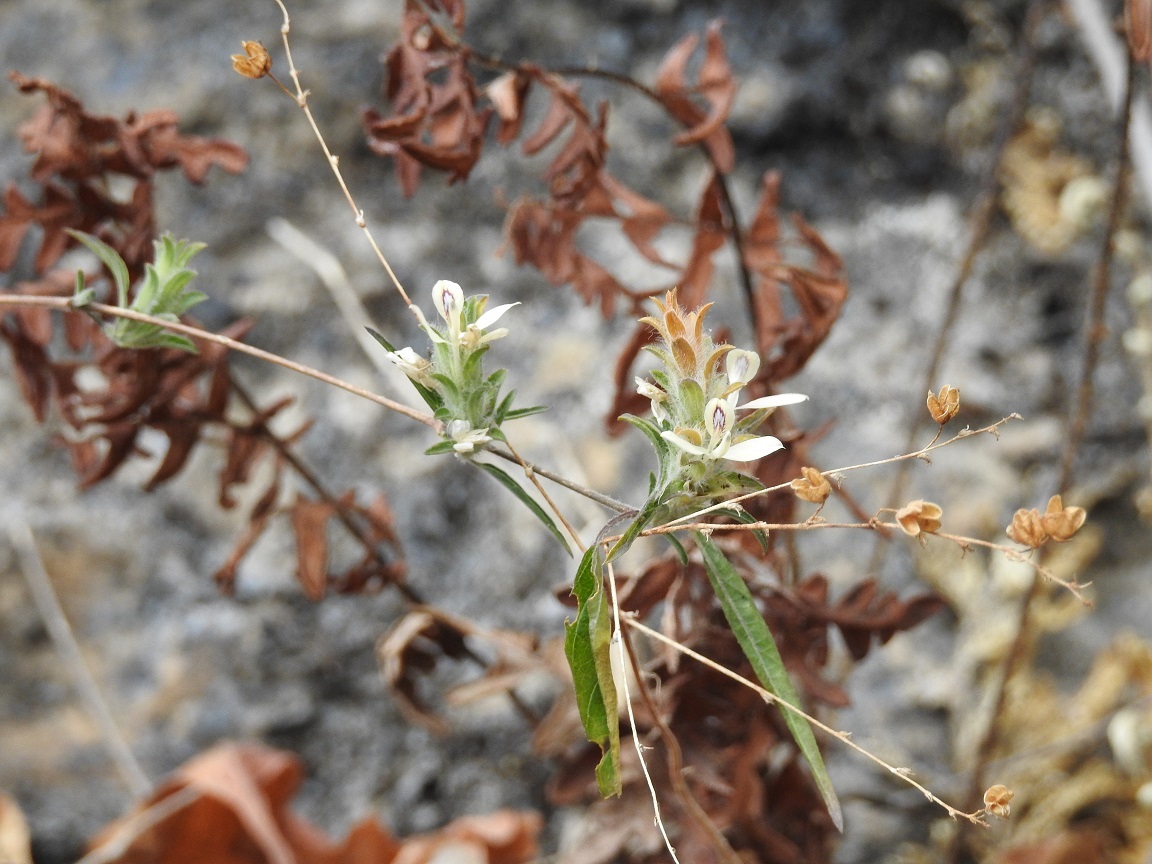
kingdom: Plantae
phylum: Tracheophyta
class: Magnoliopsida
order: Lamiales
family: Acanthaceae
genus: Tetramerium
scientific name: Tetramerium nervosum
